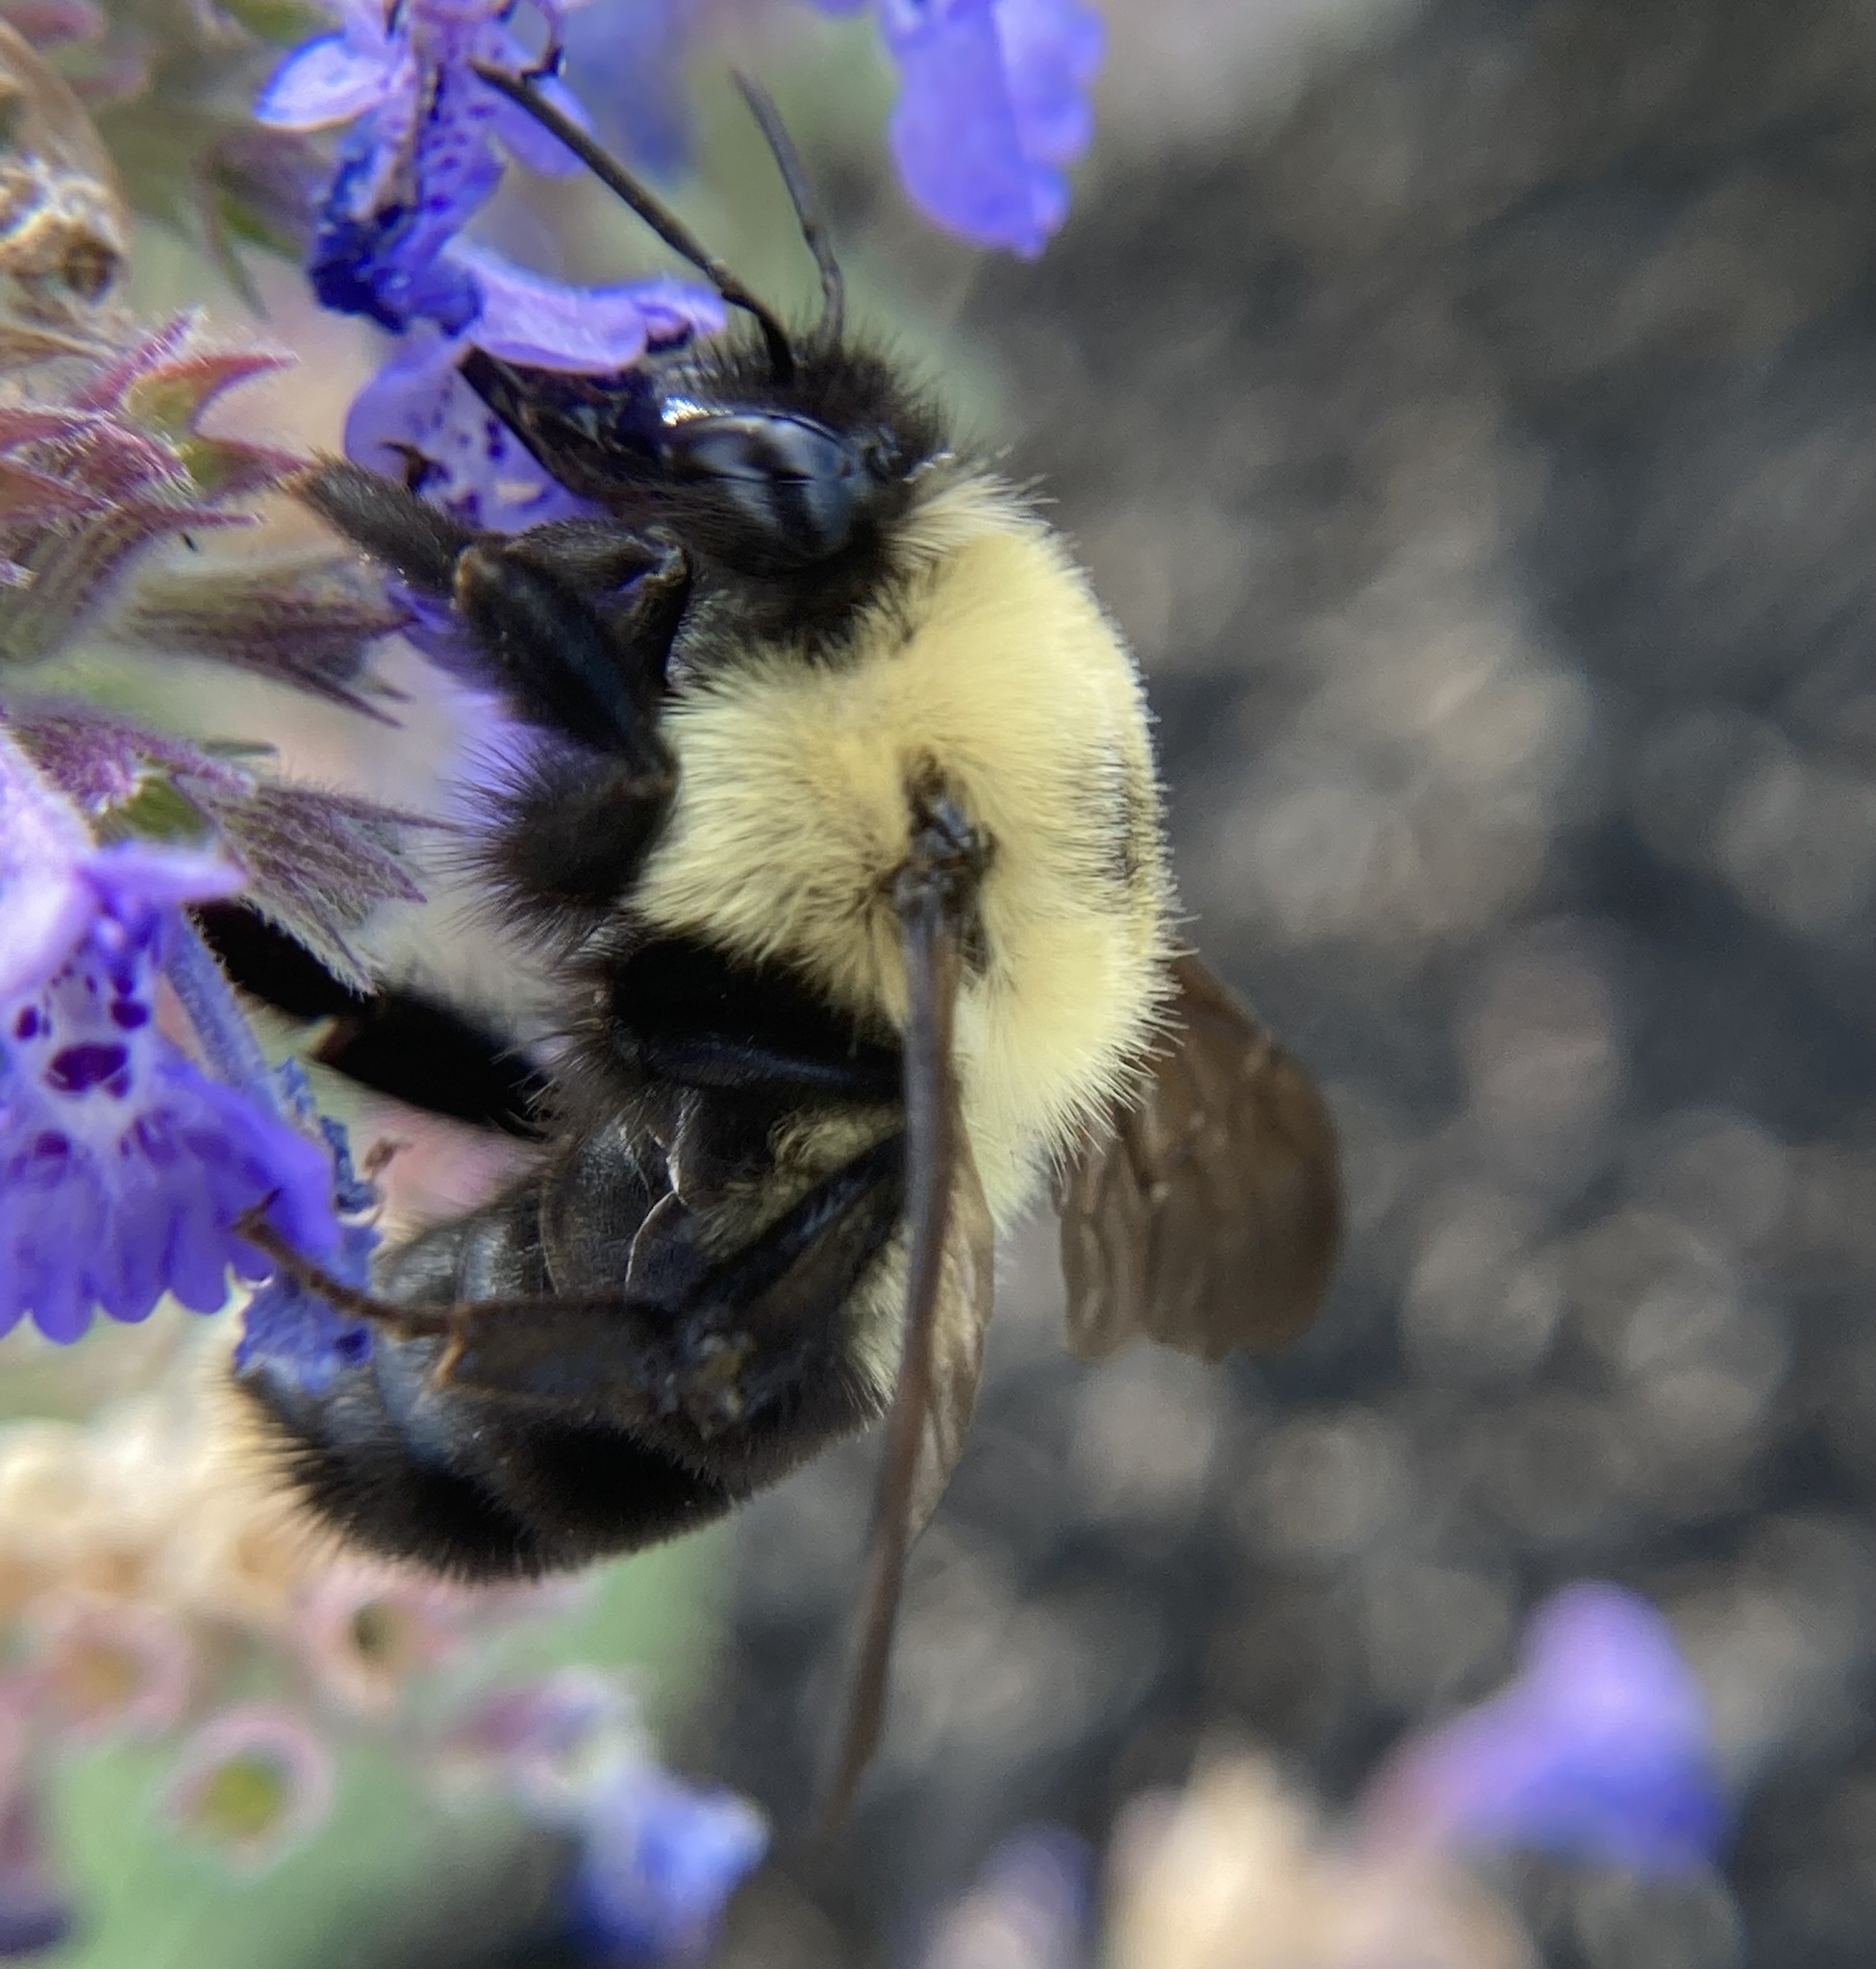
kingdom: Animalia
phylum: Arthropoda
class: Insecta
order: Hymenoptera
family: Apidae
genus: Bombus
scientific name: Bombus bimaculatus
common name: Two-spotted bumble bee
